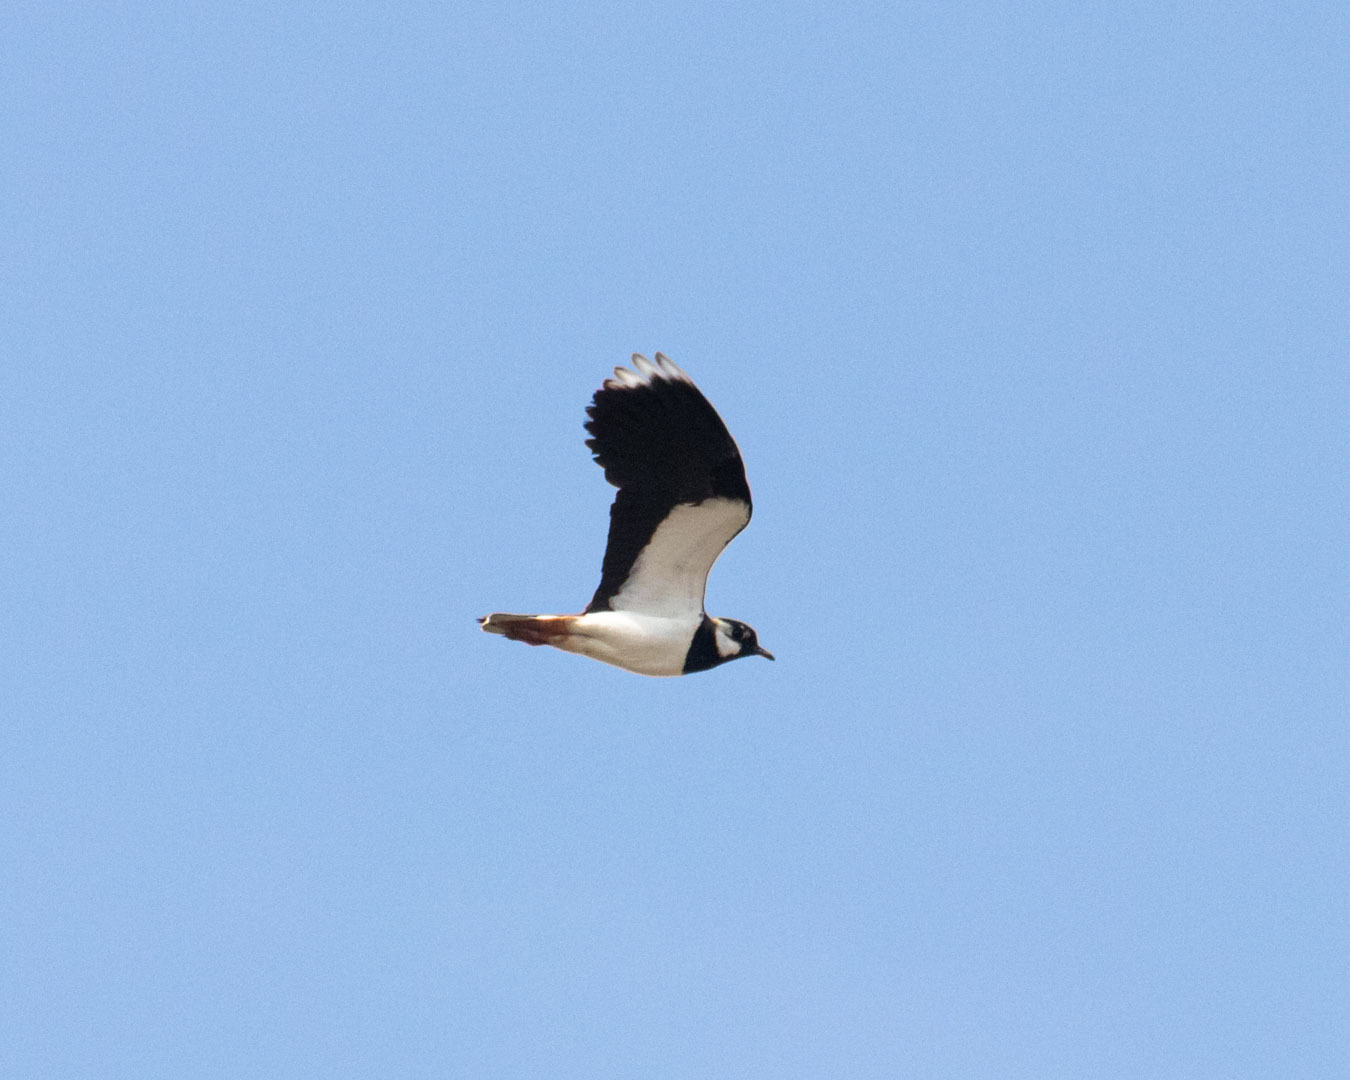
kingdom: Animalia
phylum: Chordata
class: Aves
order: Charadriiformes
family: Charadriidae
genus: Vanellus
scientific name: Vanellus vanellus
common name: Northern lapwing
